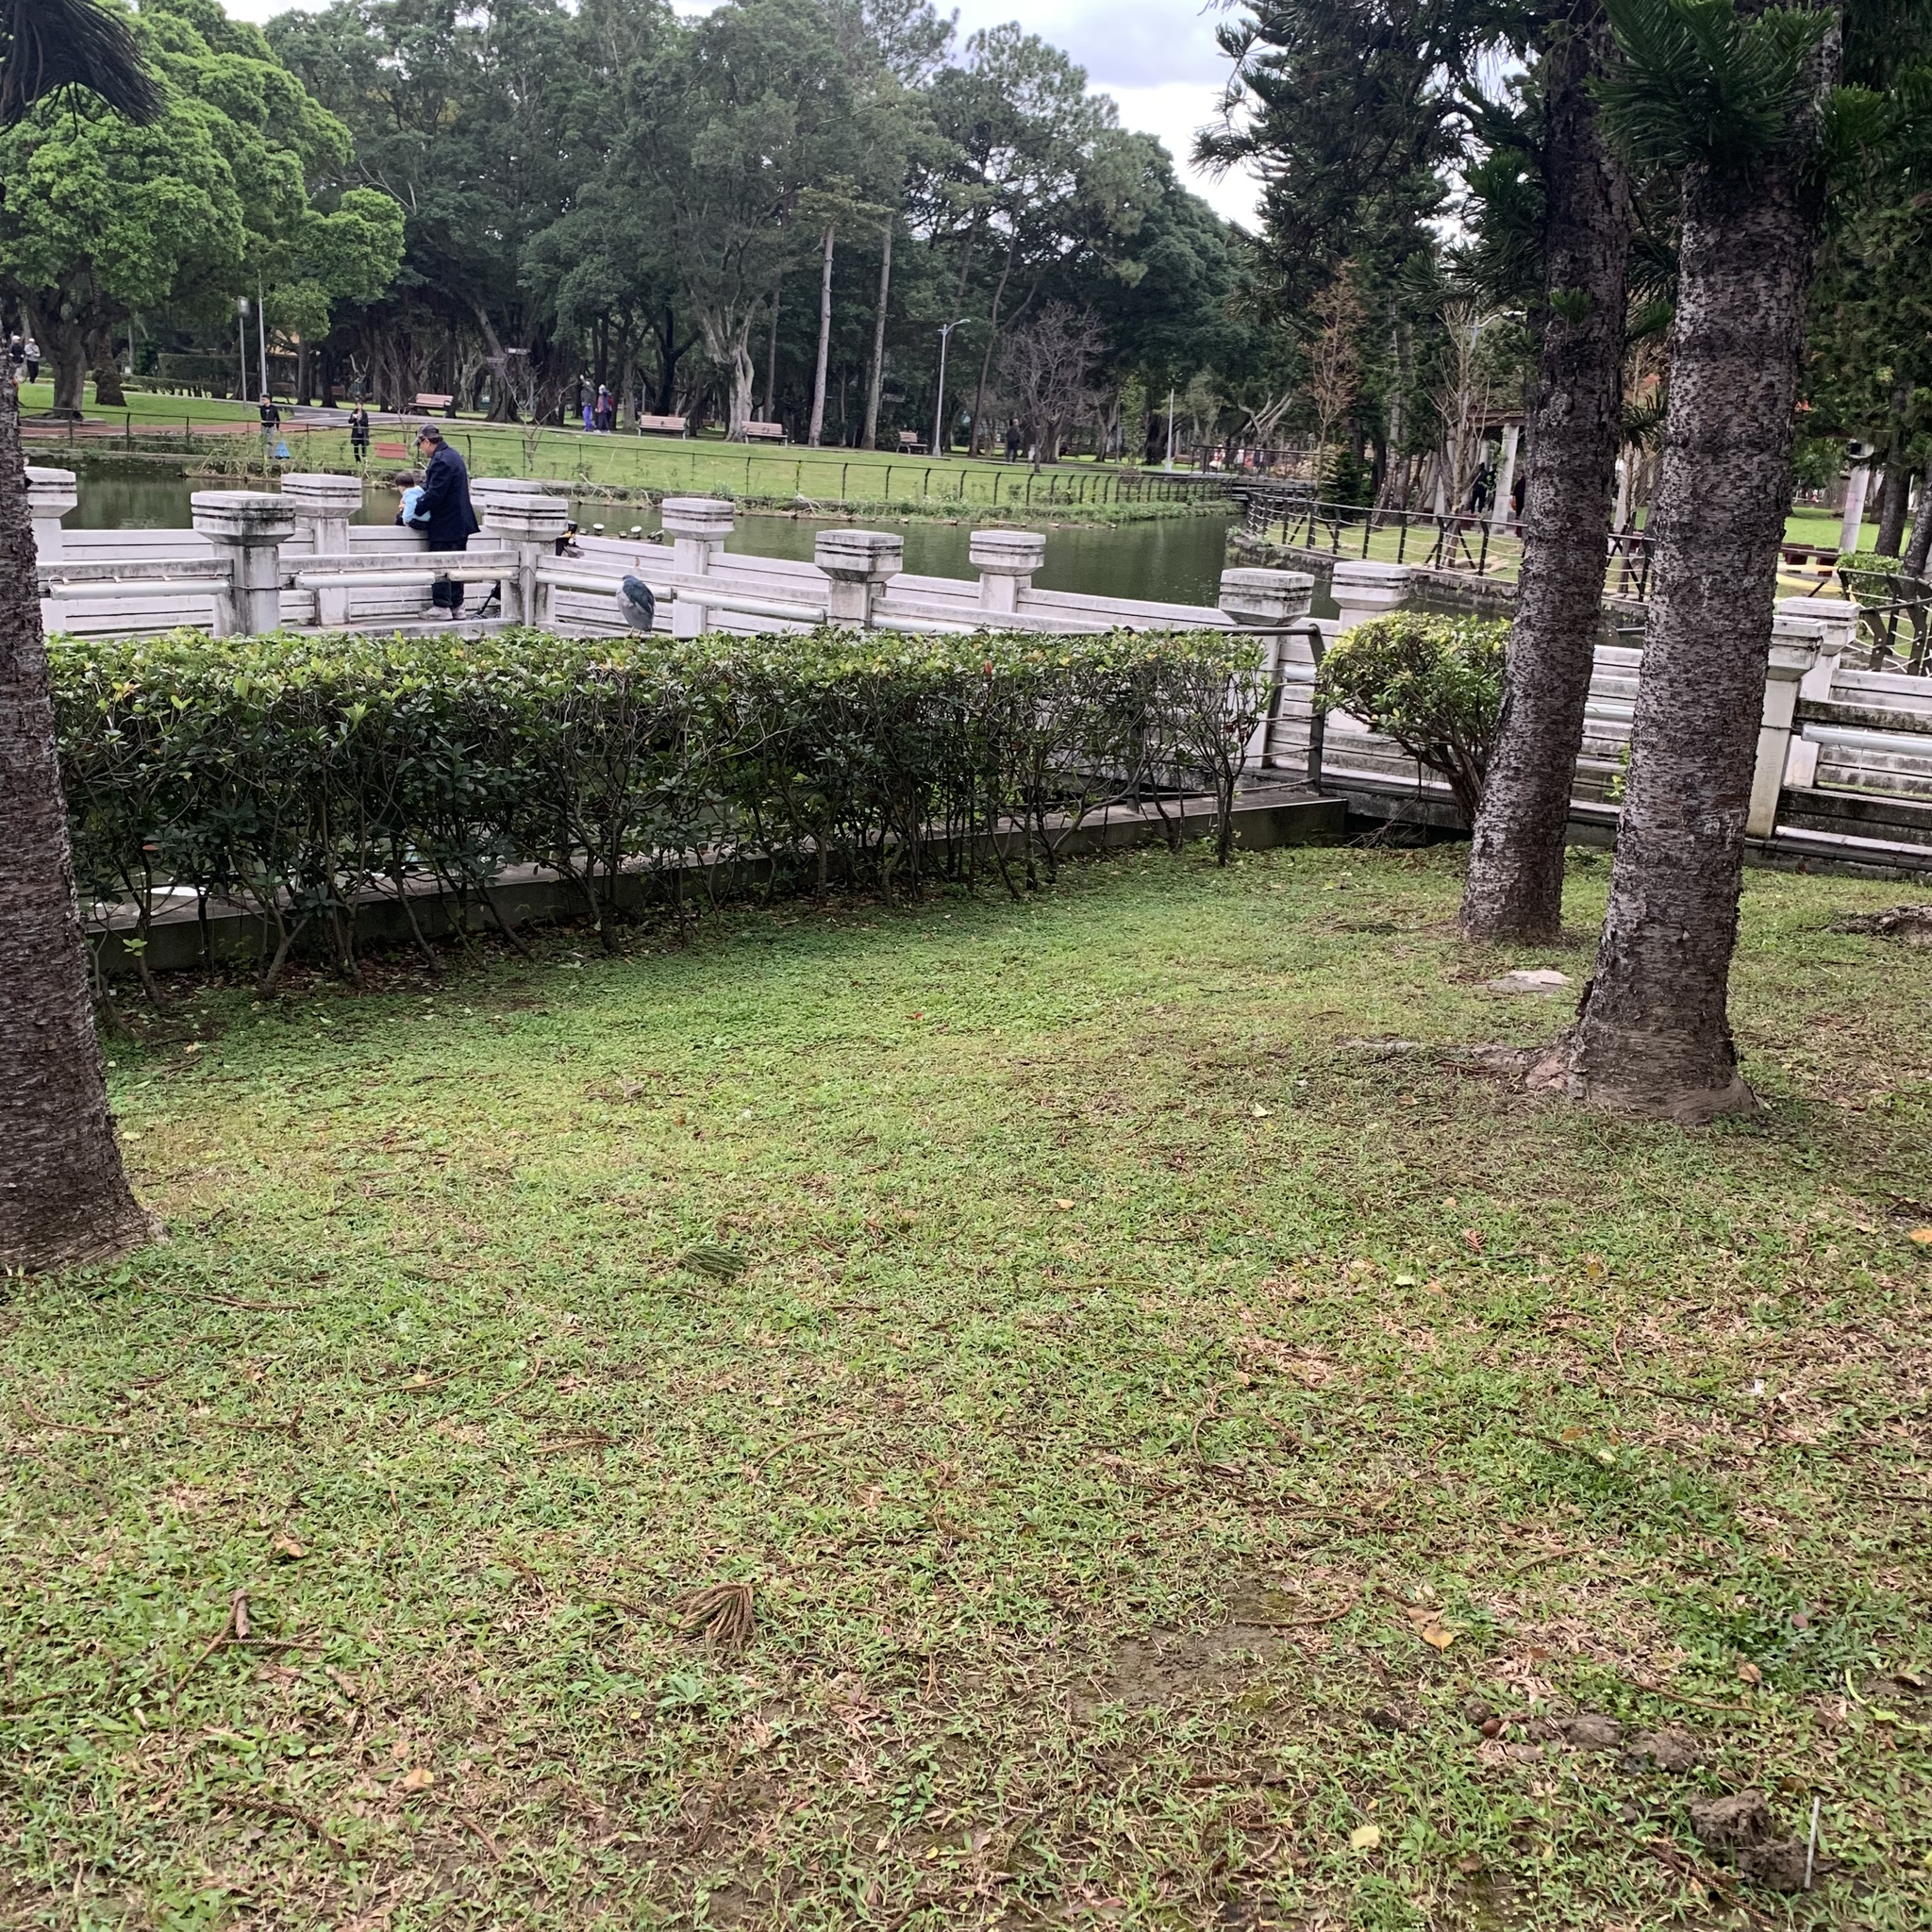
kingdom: Animalia
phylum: Chordata
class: Aves
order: Pelecaniformes
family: Ardeidae
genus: Nycticorax
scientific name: Nycticorax nycticorax
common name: Black-crowned night heron
